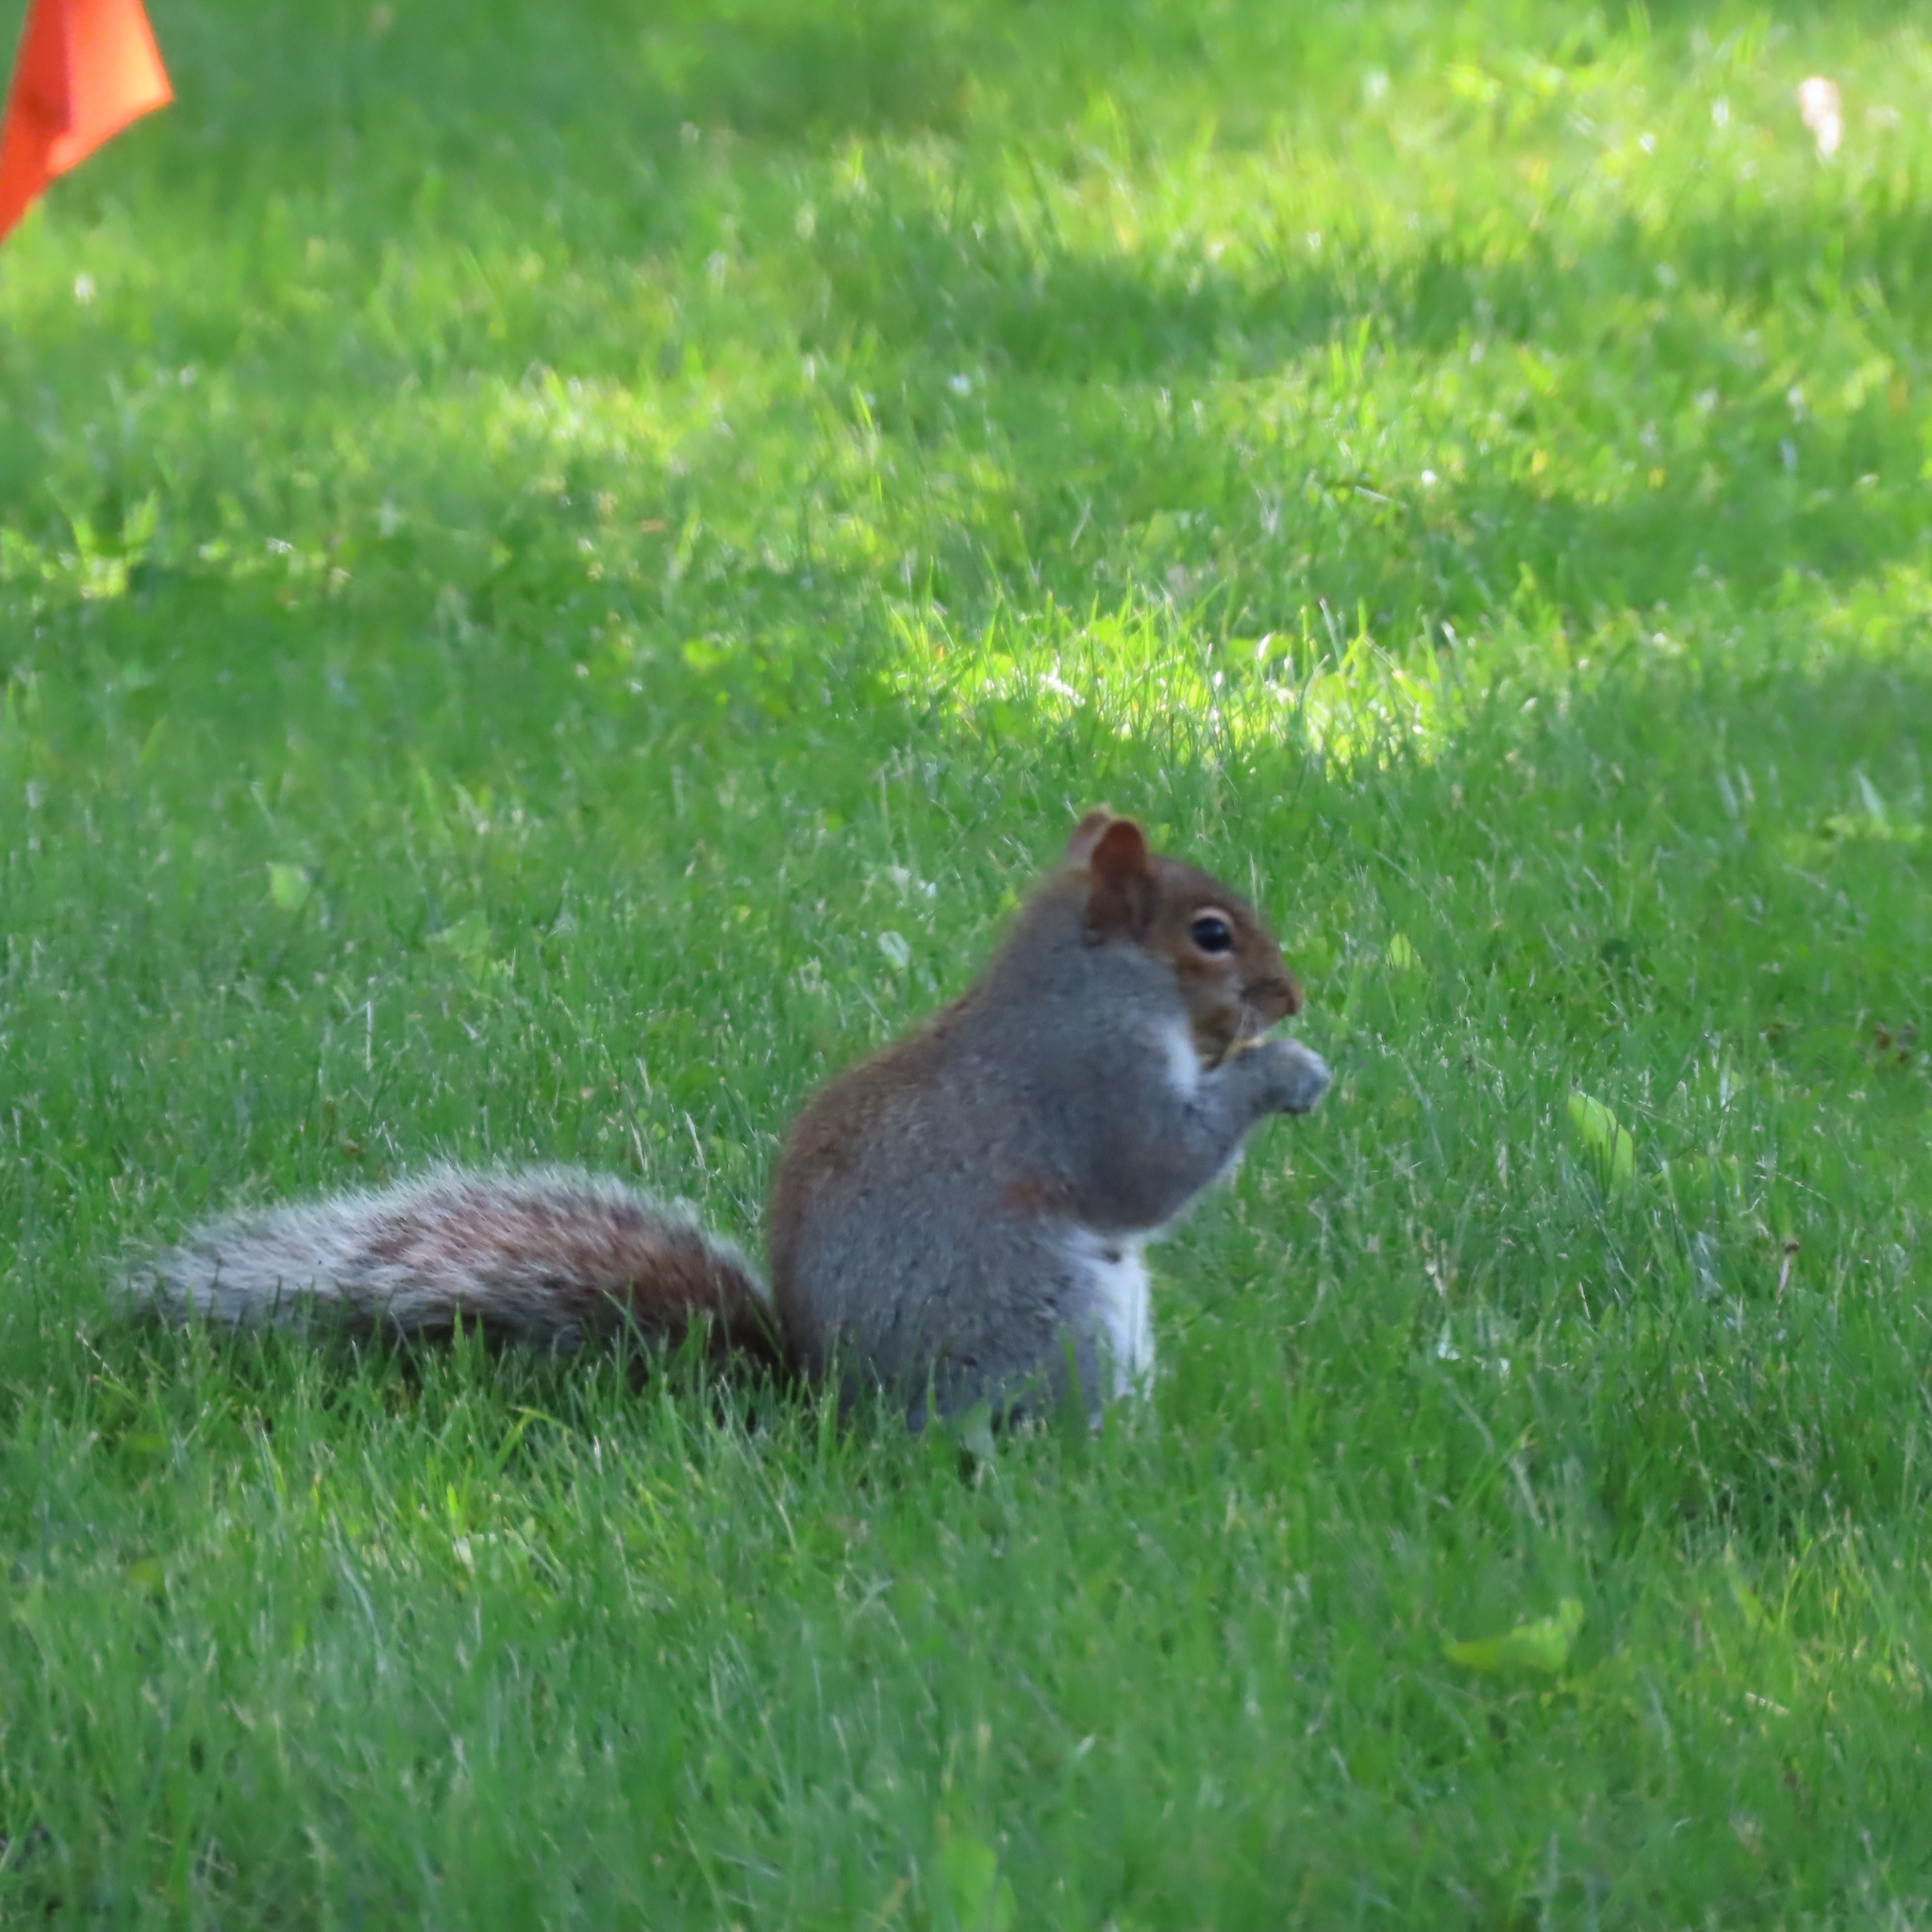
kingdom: Animalia
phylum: Chordata
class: Mammalia
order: Rodentia
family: Sciuridae
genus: Sciurus
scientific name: Sciurus carolinensis
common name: Eastern gray squirrel
